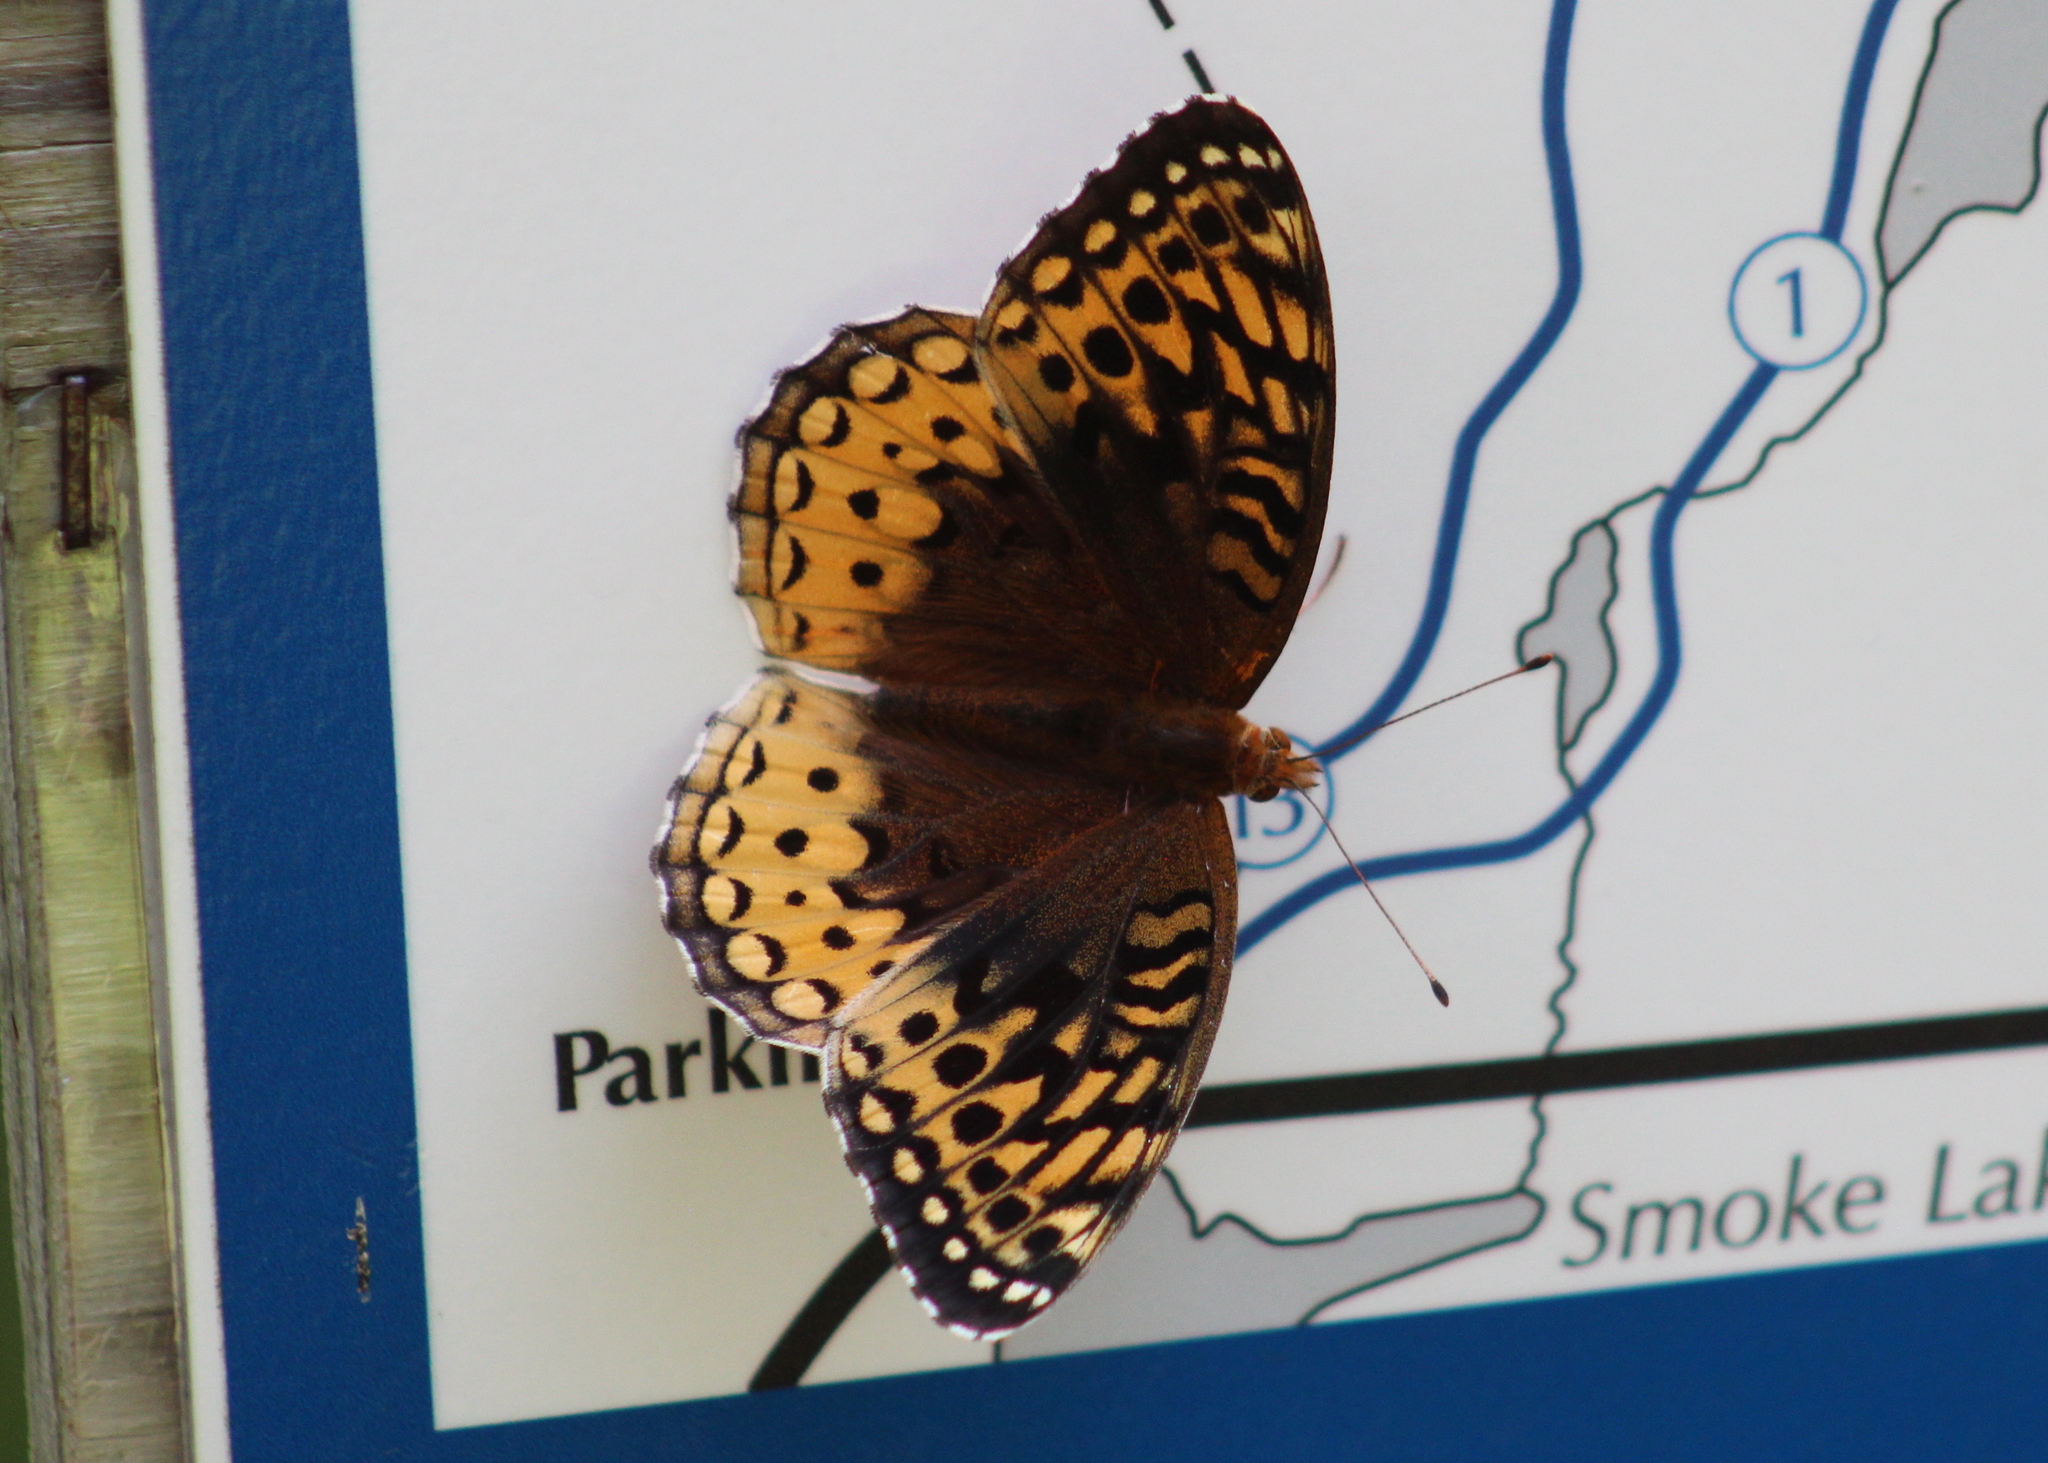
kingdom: Animalia
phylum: Arthropoda
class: Insecta
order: Lepidoptera
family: Nymphalidae
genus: Speyeria
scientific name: Speyeria cybele
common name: Great spangled fritillary
